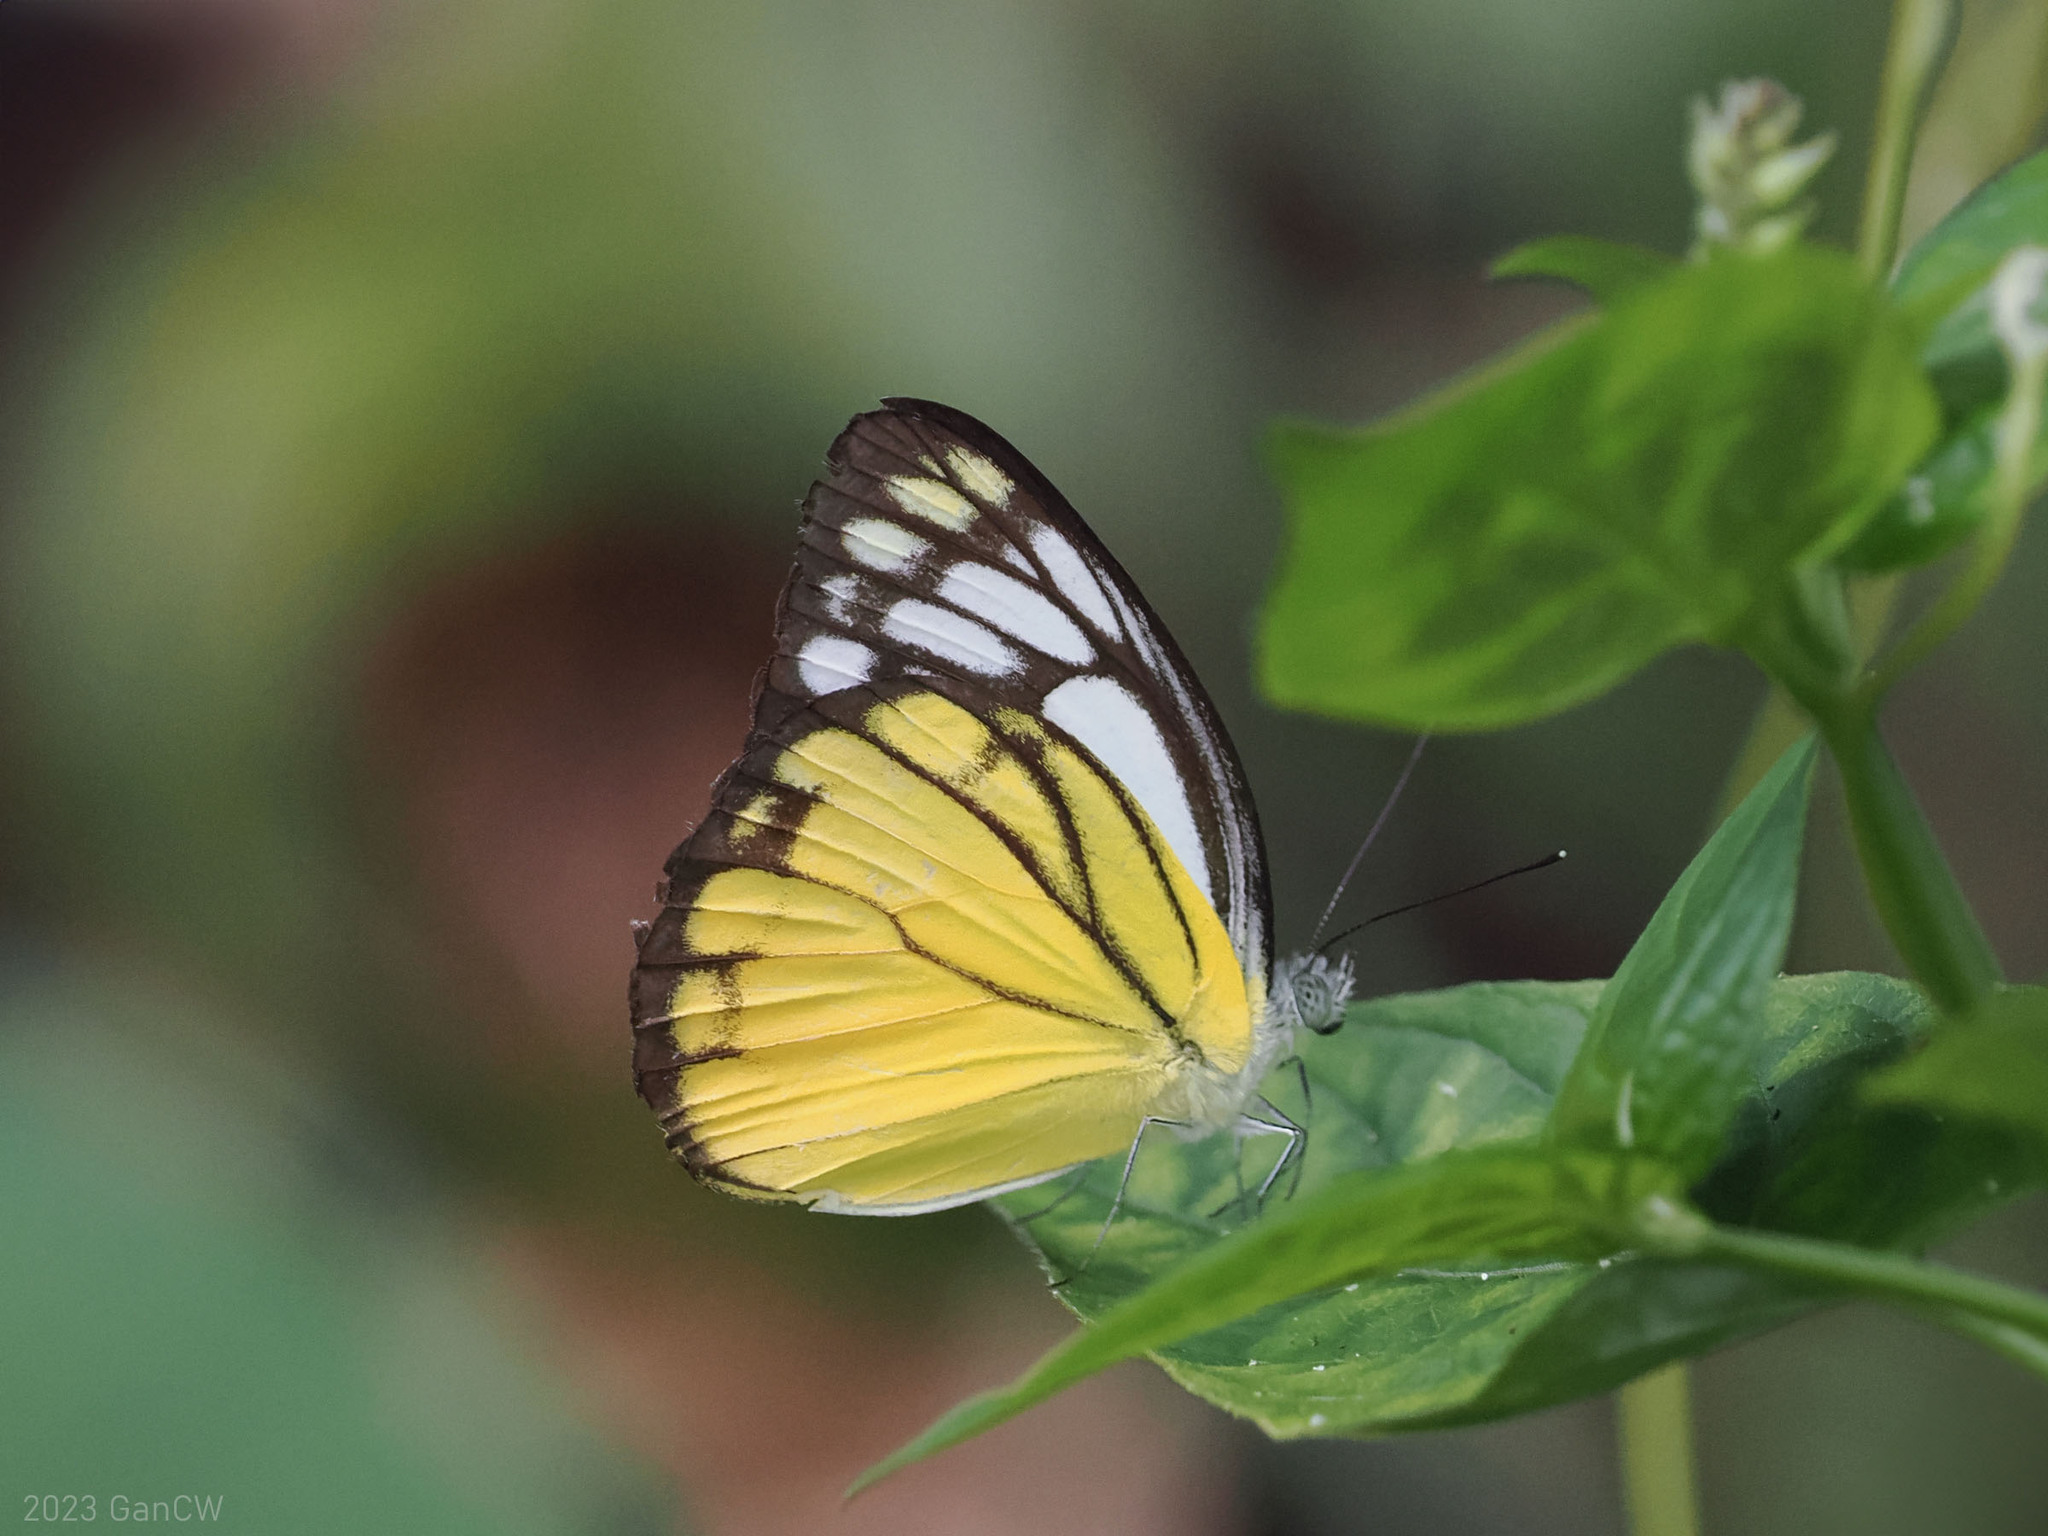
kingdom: Animalia
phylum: Arthropoda
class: Insecta
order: Lepidoptera
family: Pieridae
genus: Cepora
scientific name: Cepora aspasia
